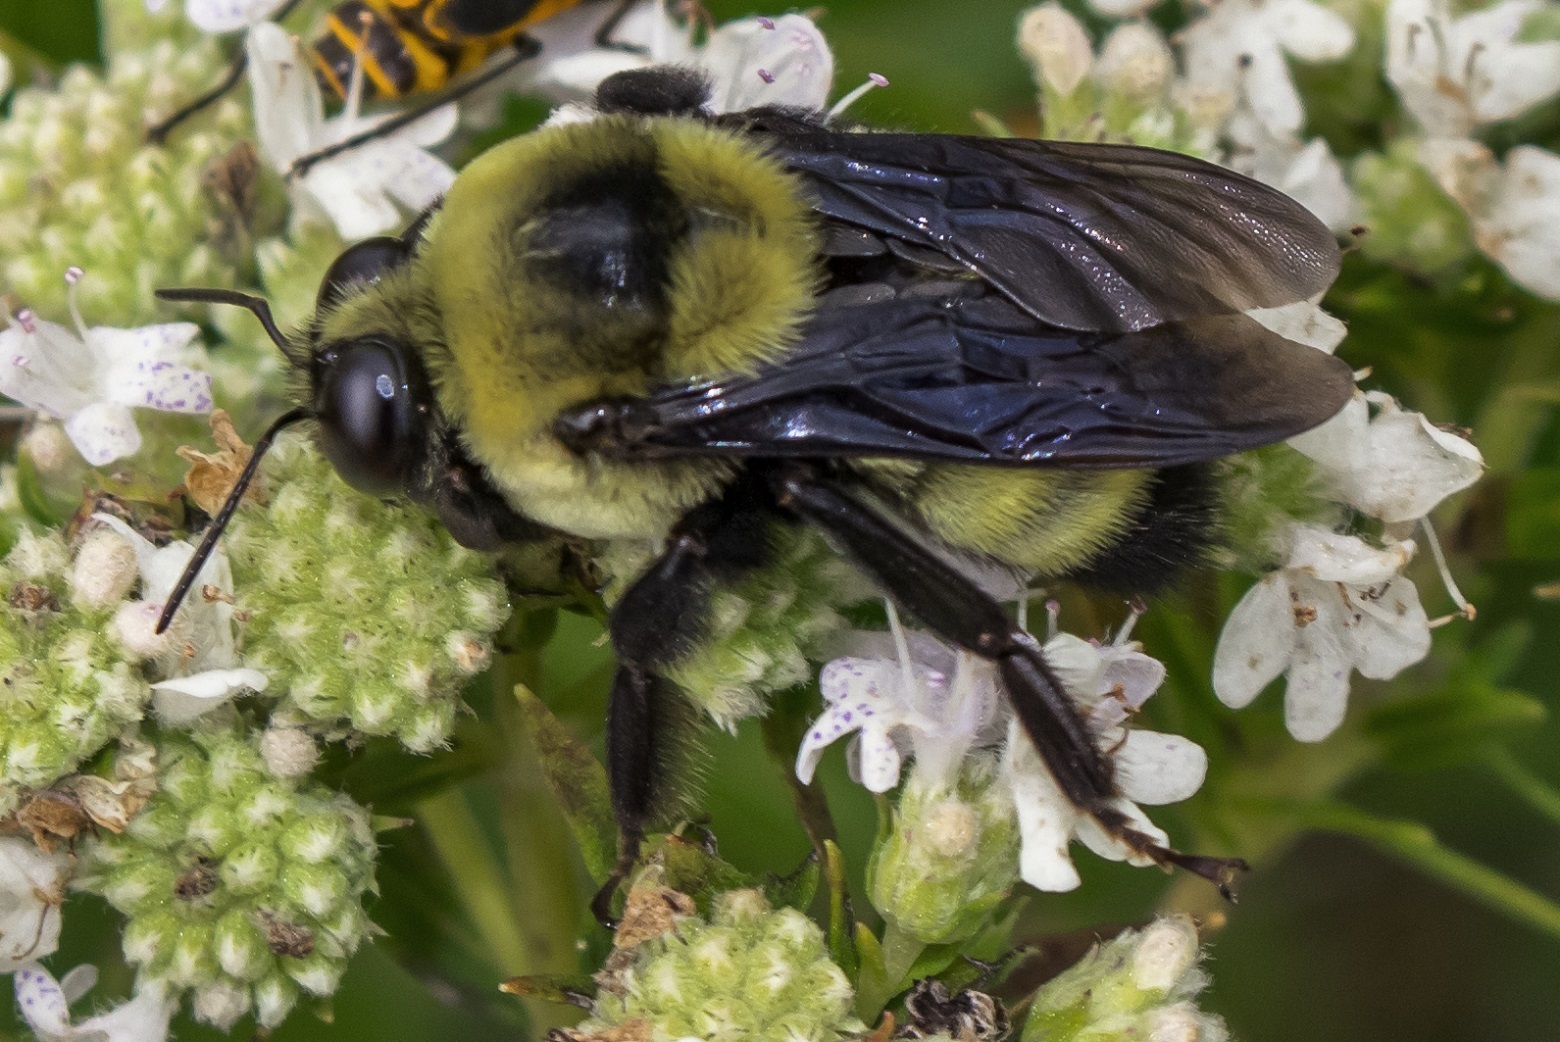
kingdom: Animalia
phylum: Arthropoda
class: Insecta
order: Hymenoptera
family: Apidae
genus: Bombus
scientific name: Bombus auricomus
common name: Black and gold bumble bee
